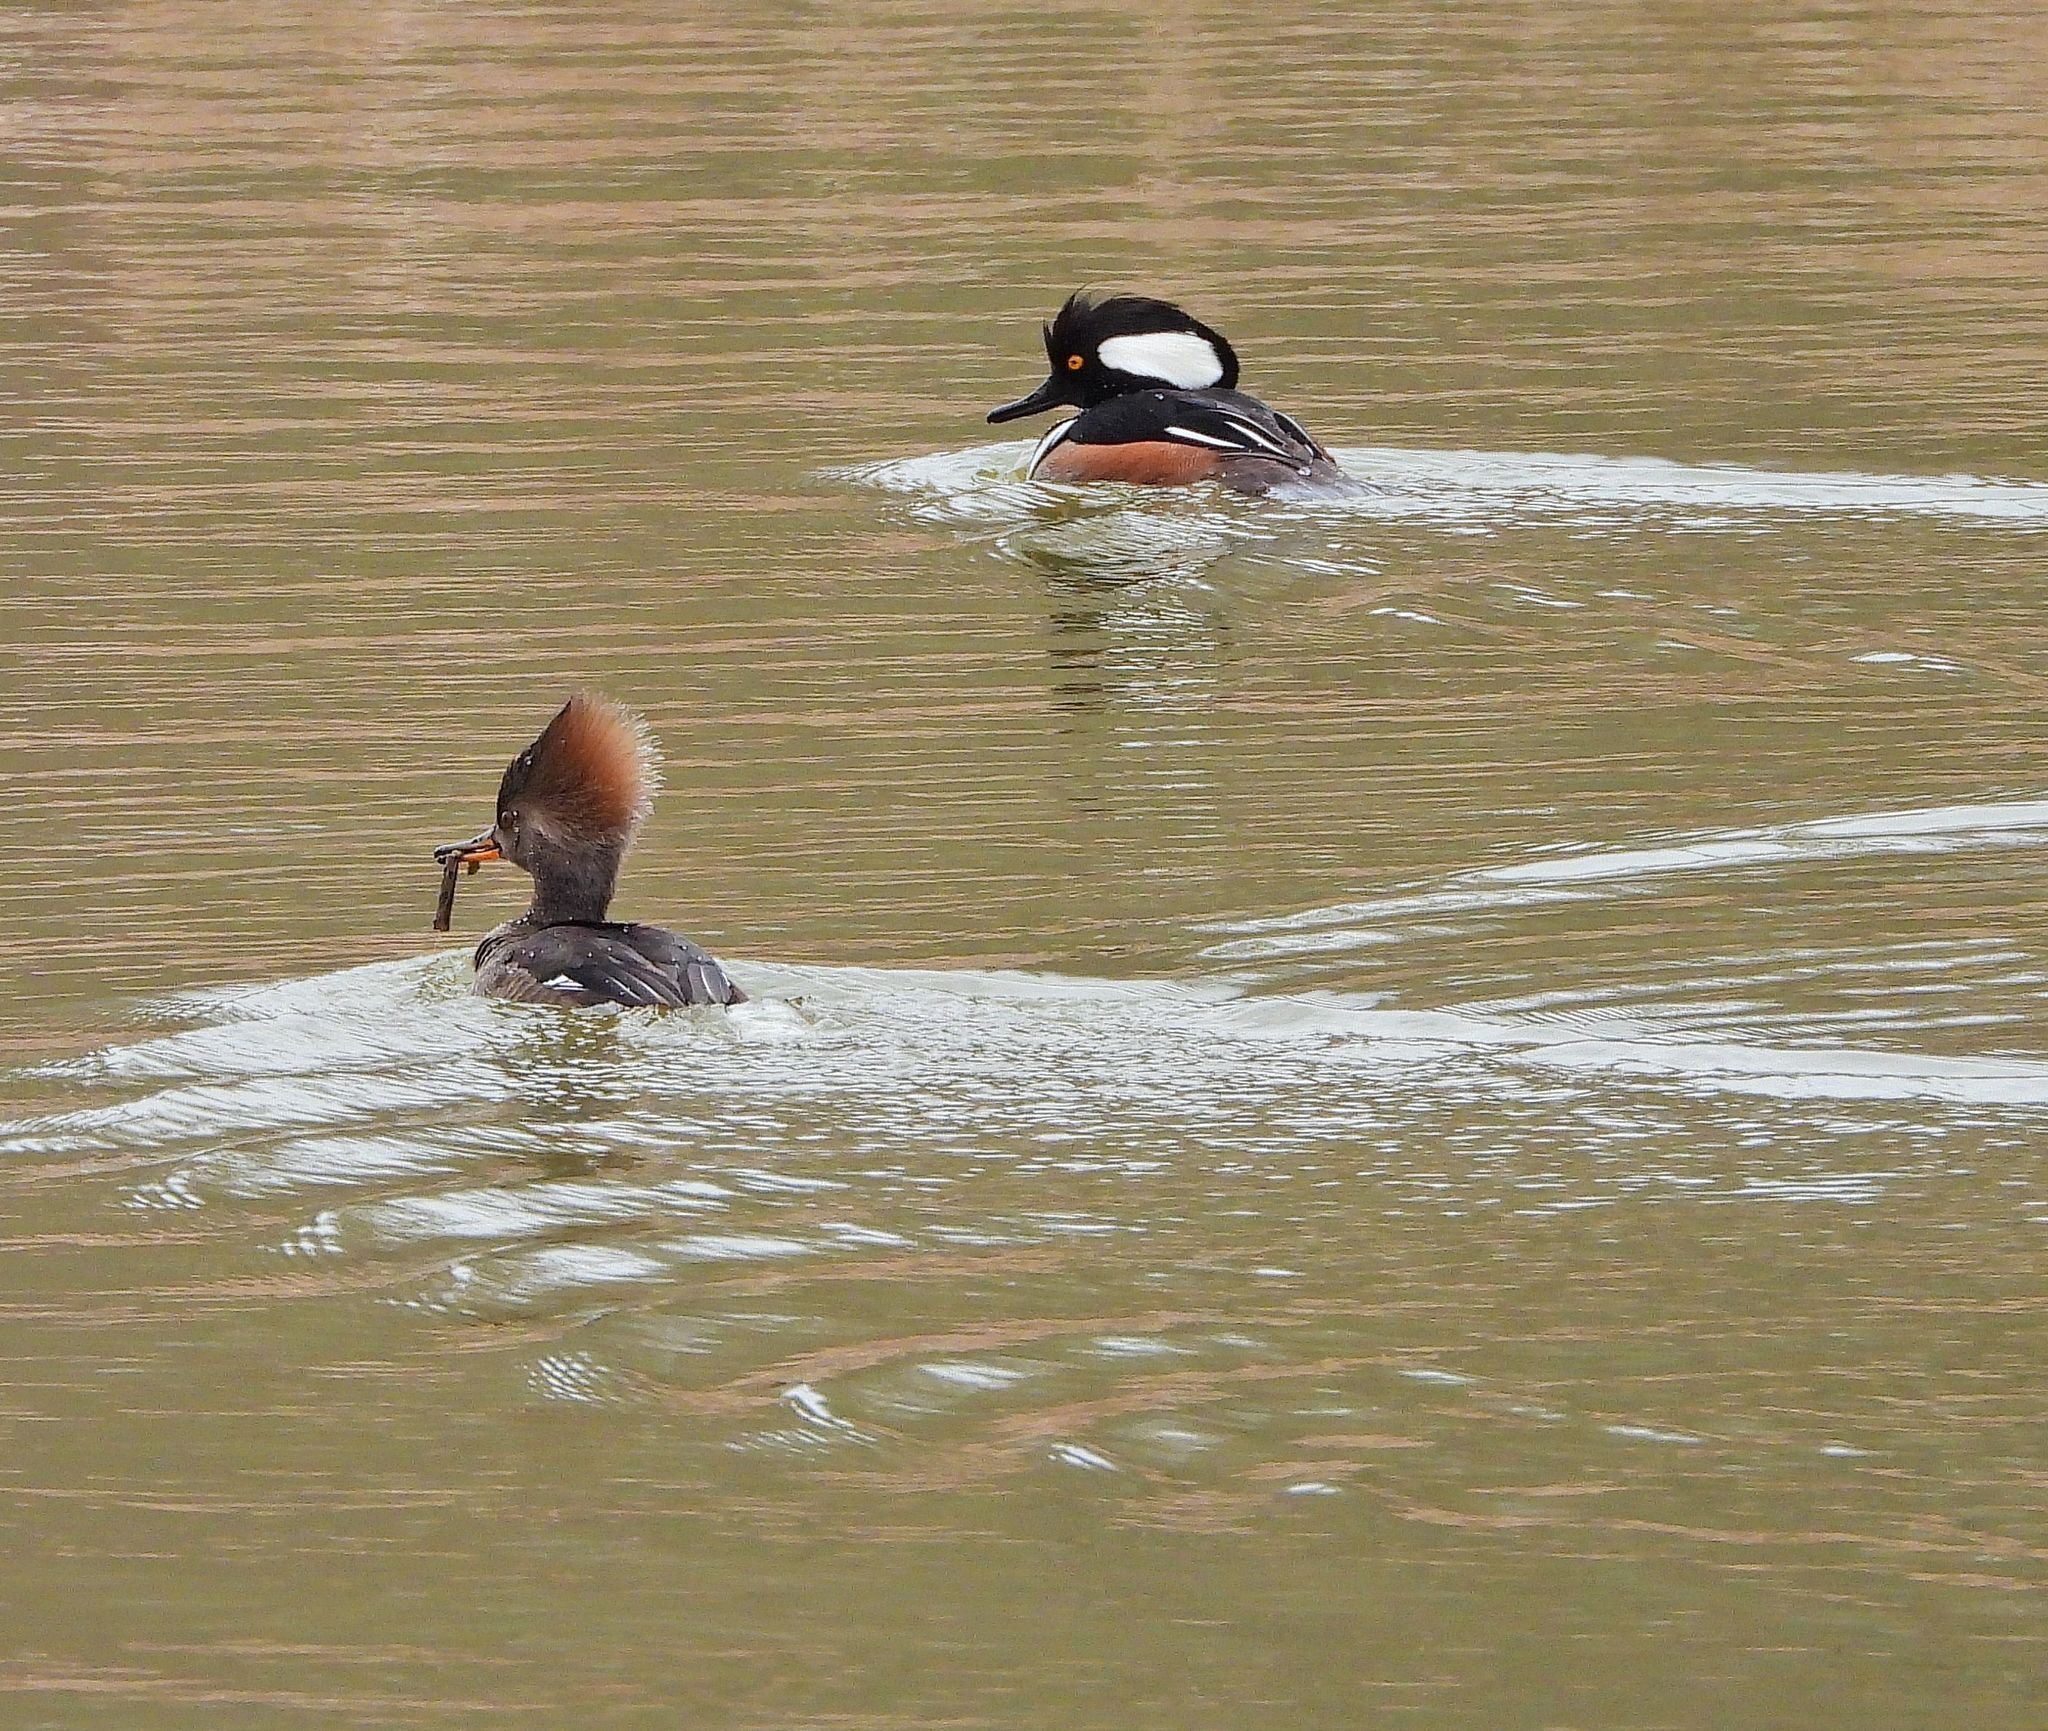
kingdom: Animalia
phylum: Chordata
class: Aves
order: Anseriformes
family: Anatidae
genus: Lophodytes
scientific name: Lophodytes cucullatus
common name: Hooded merganser
